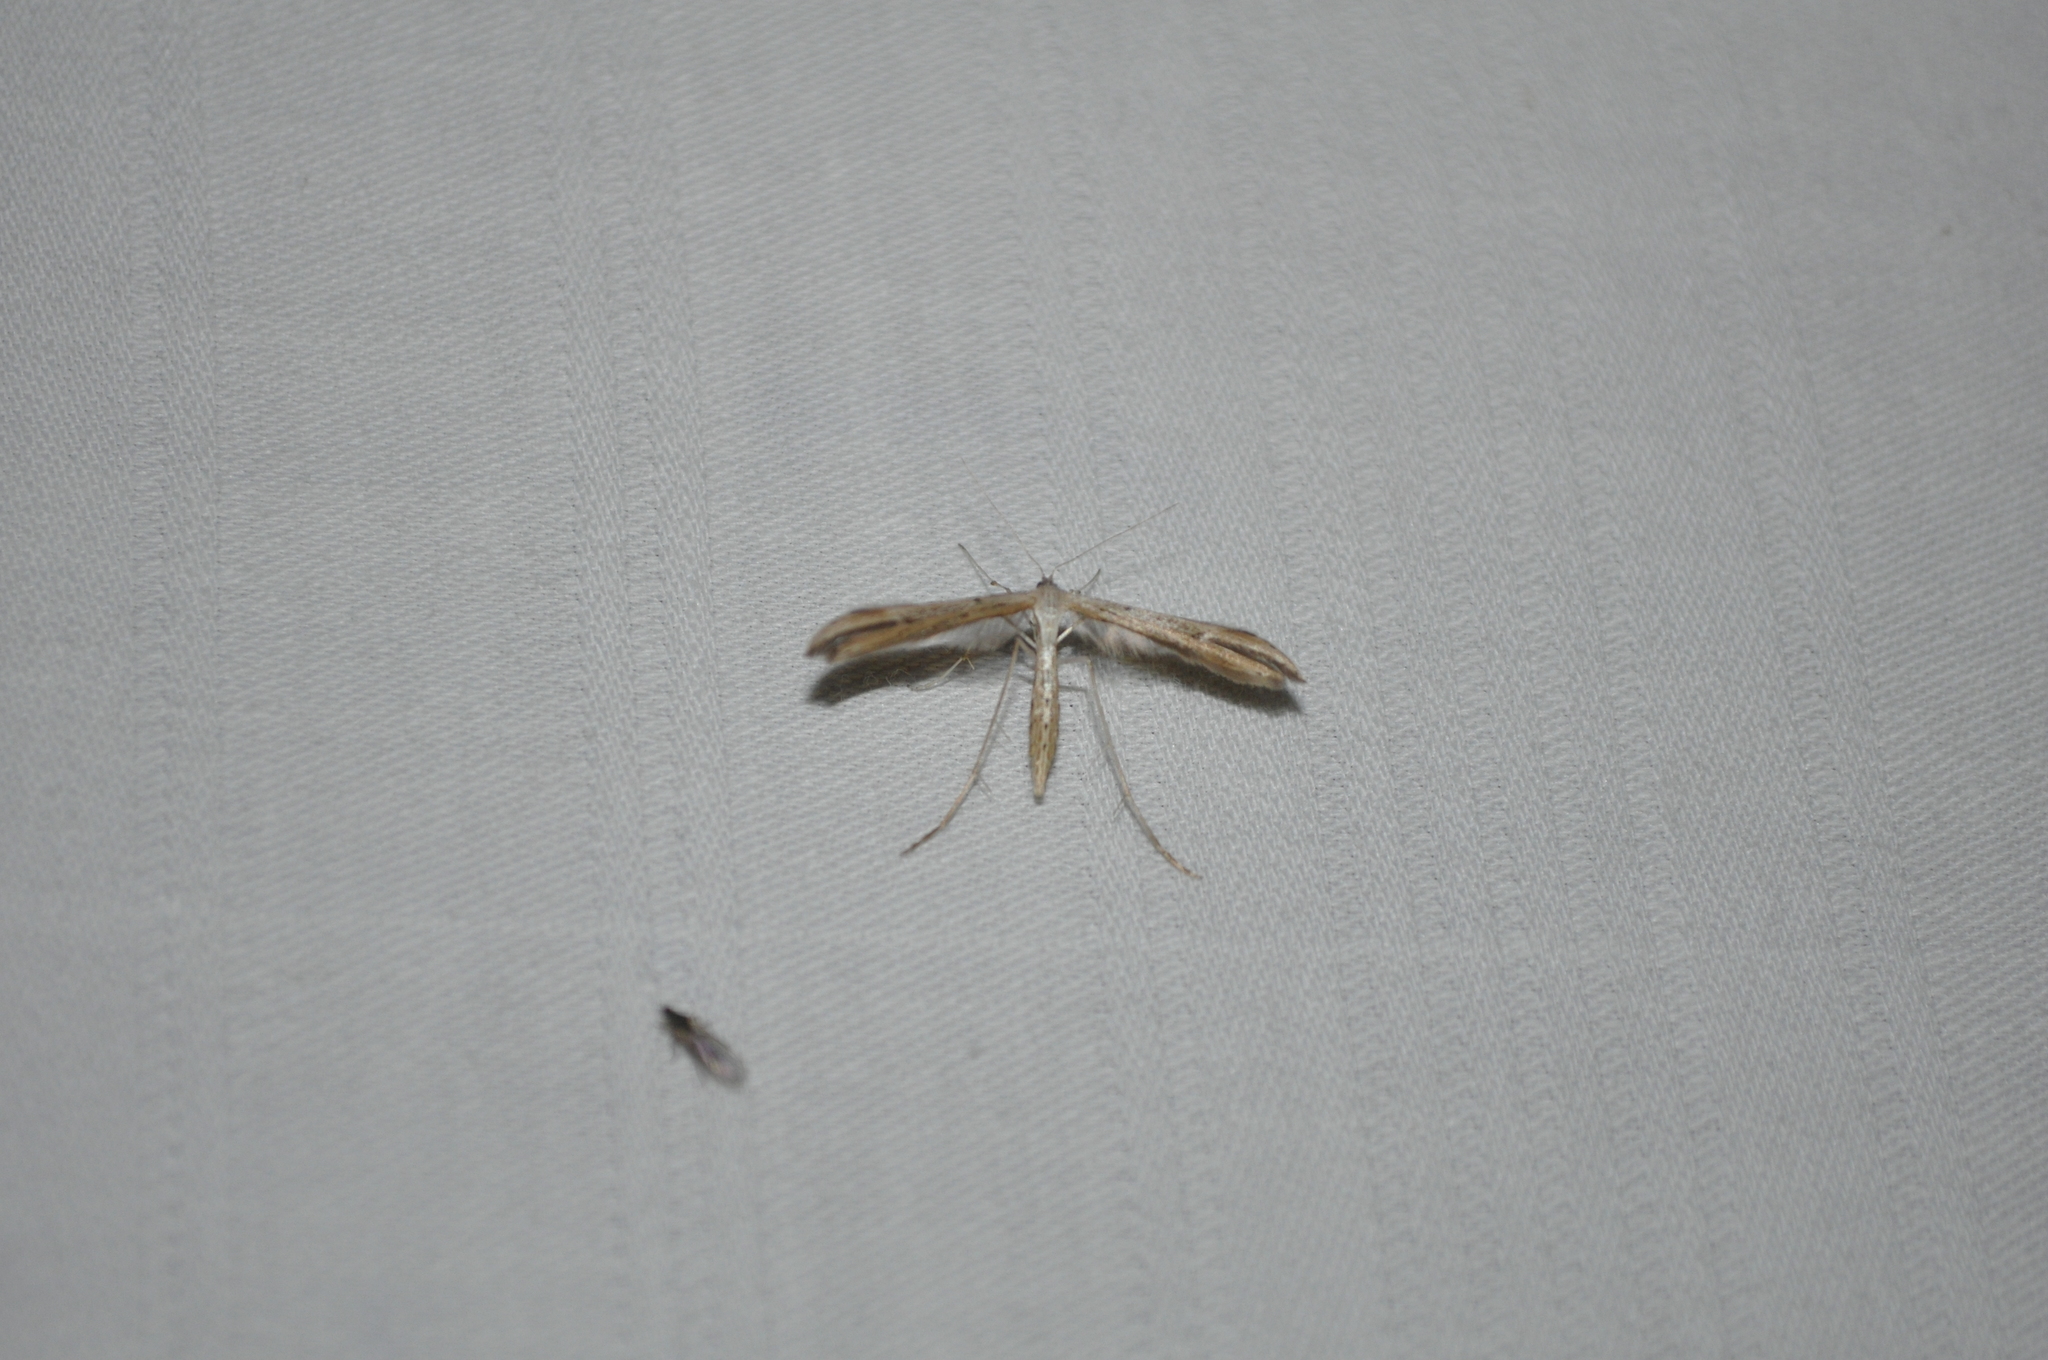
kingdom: Animalia
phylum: Arthropoda
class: Insecta
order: Lepidoptera
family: Pterophoridae
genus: Emmelina
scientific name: Emmelina monodactyla
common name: Common plume
